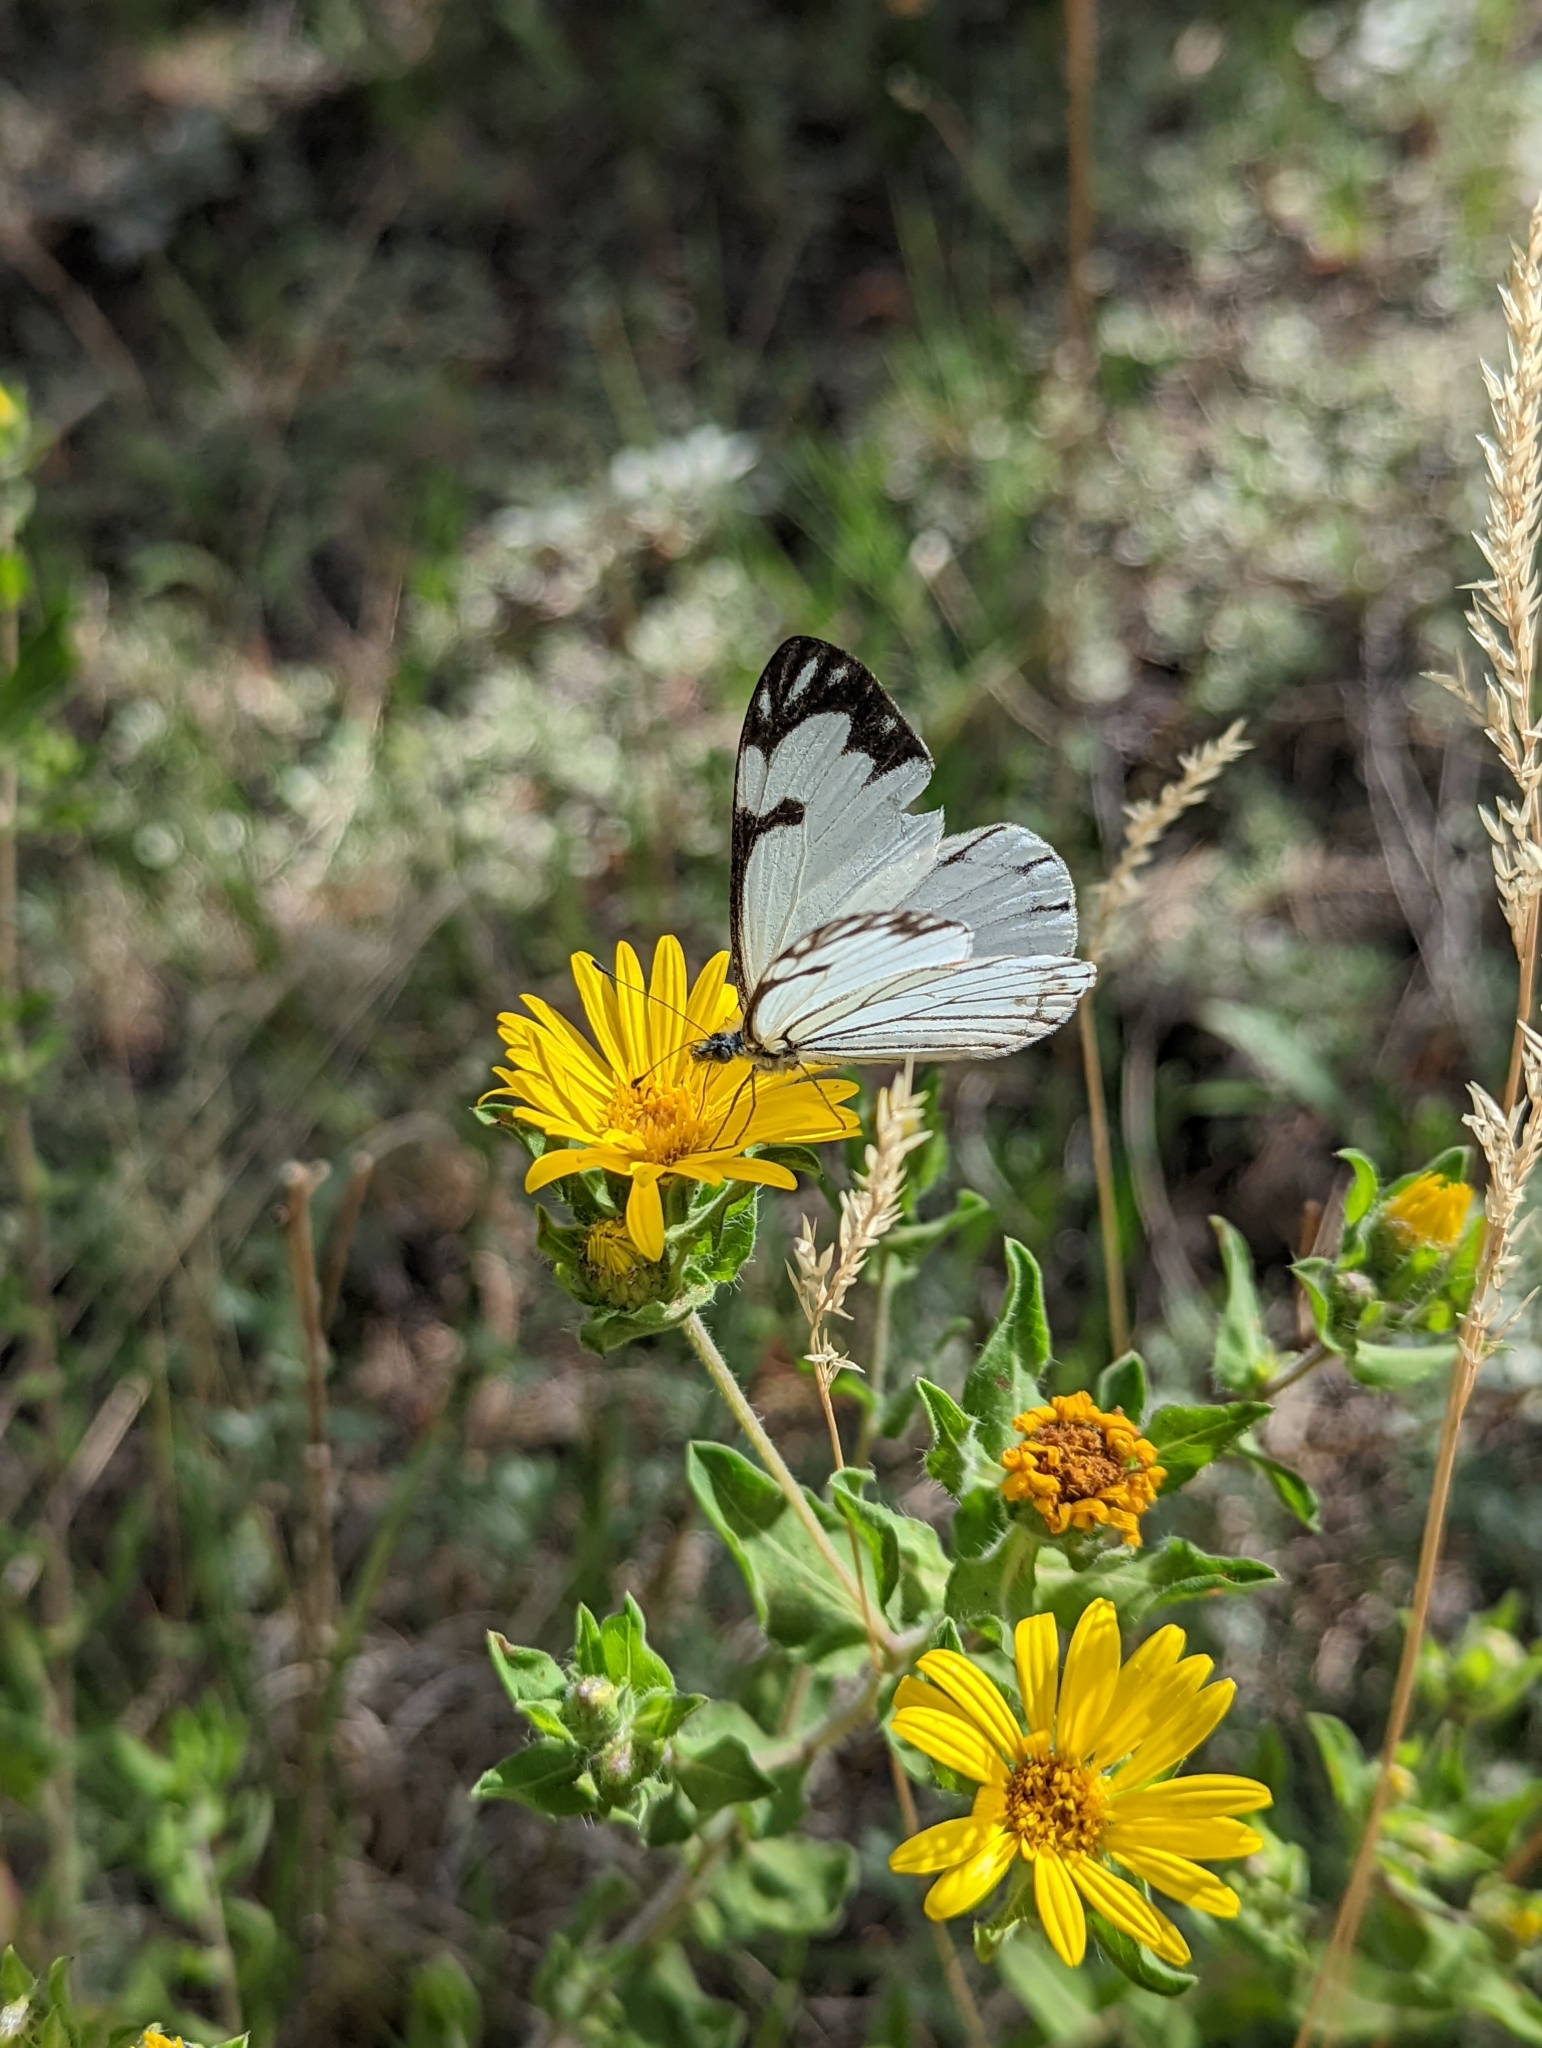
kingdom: Animalia
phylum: Arthropoda
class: Insecta
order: Lepidoptera
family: Pieridae
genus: Neophasia
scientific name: Neophasia menapia
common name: Pine white
